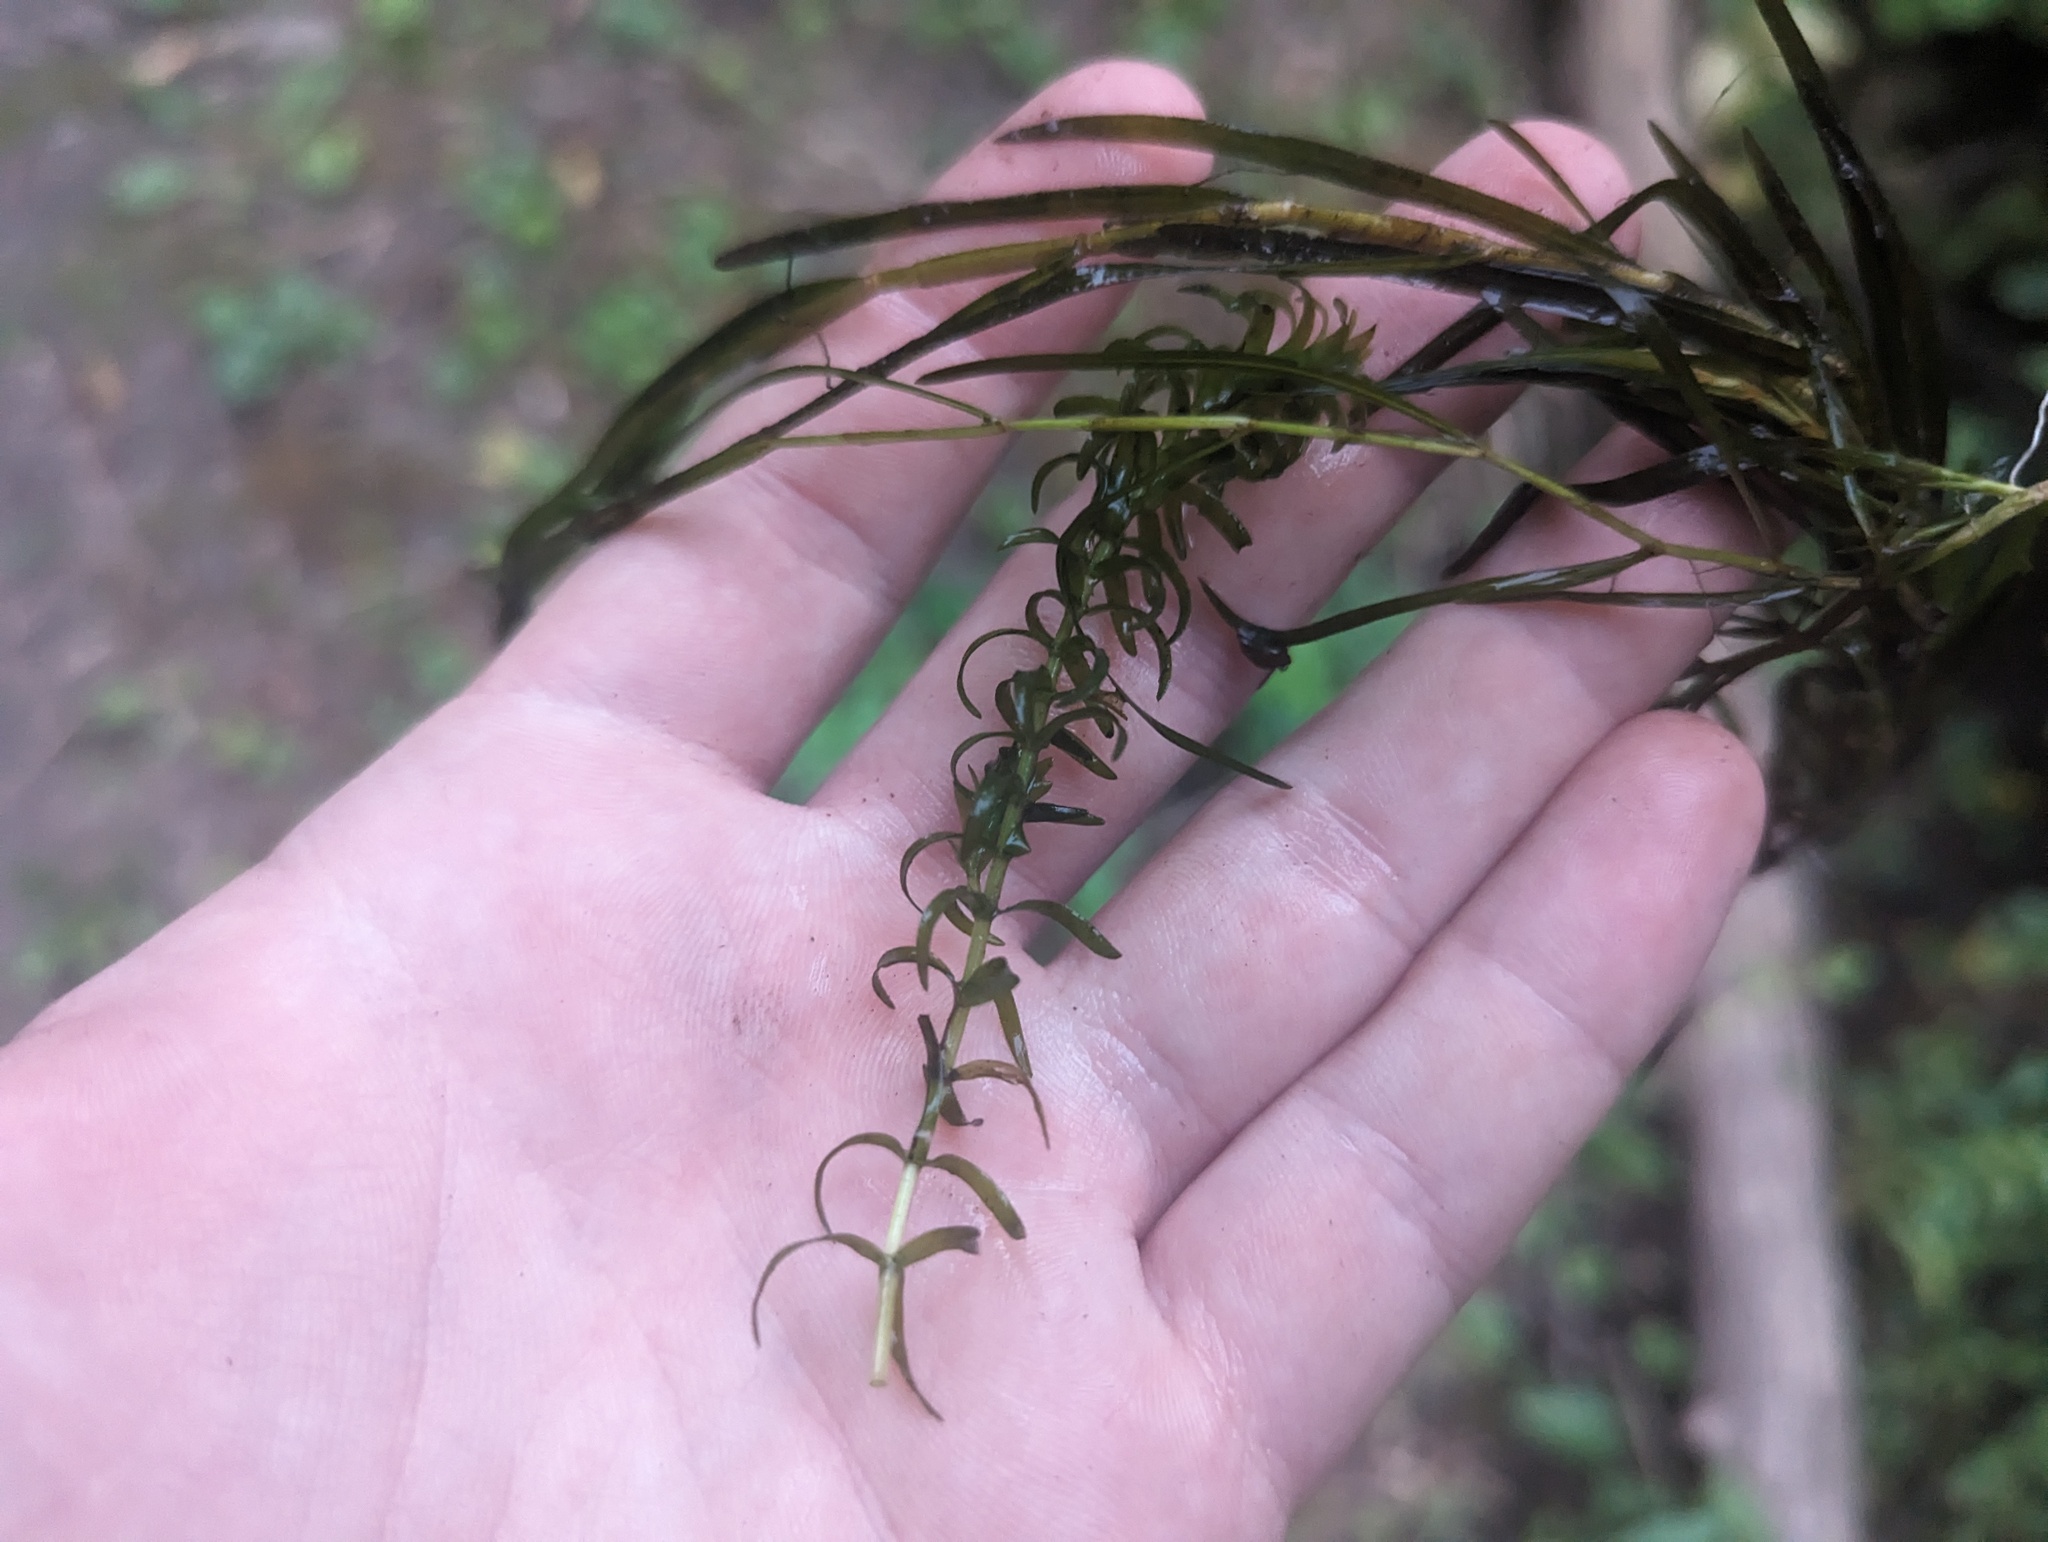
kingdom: Plantae
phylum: Tracheophyta
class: Liliopsida
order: Alismatales
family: Hydrocharitaceae
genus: Elodea
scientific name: Elodea nuttallii
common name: Nuttall's waterweed
